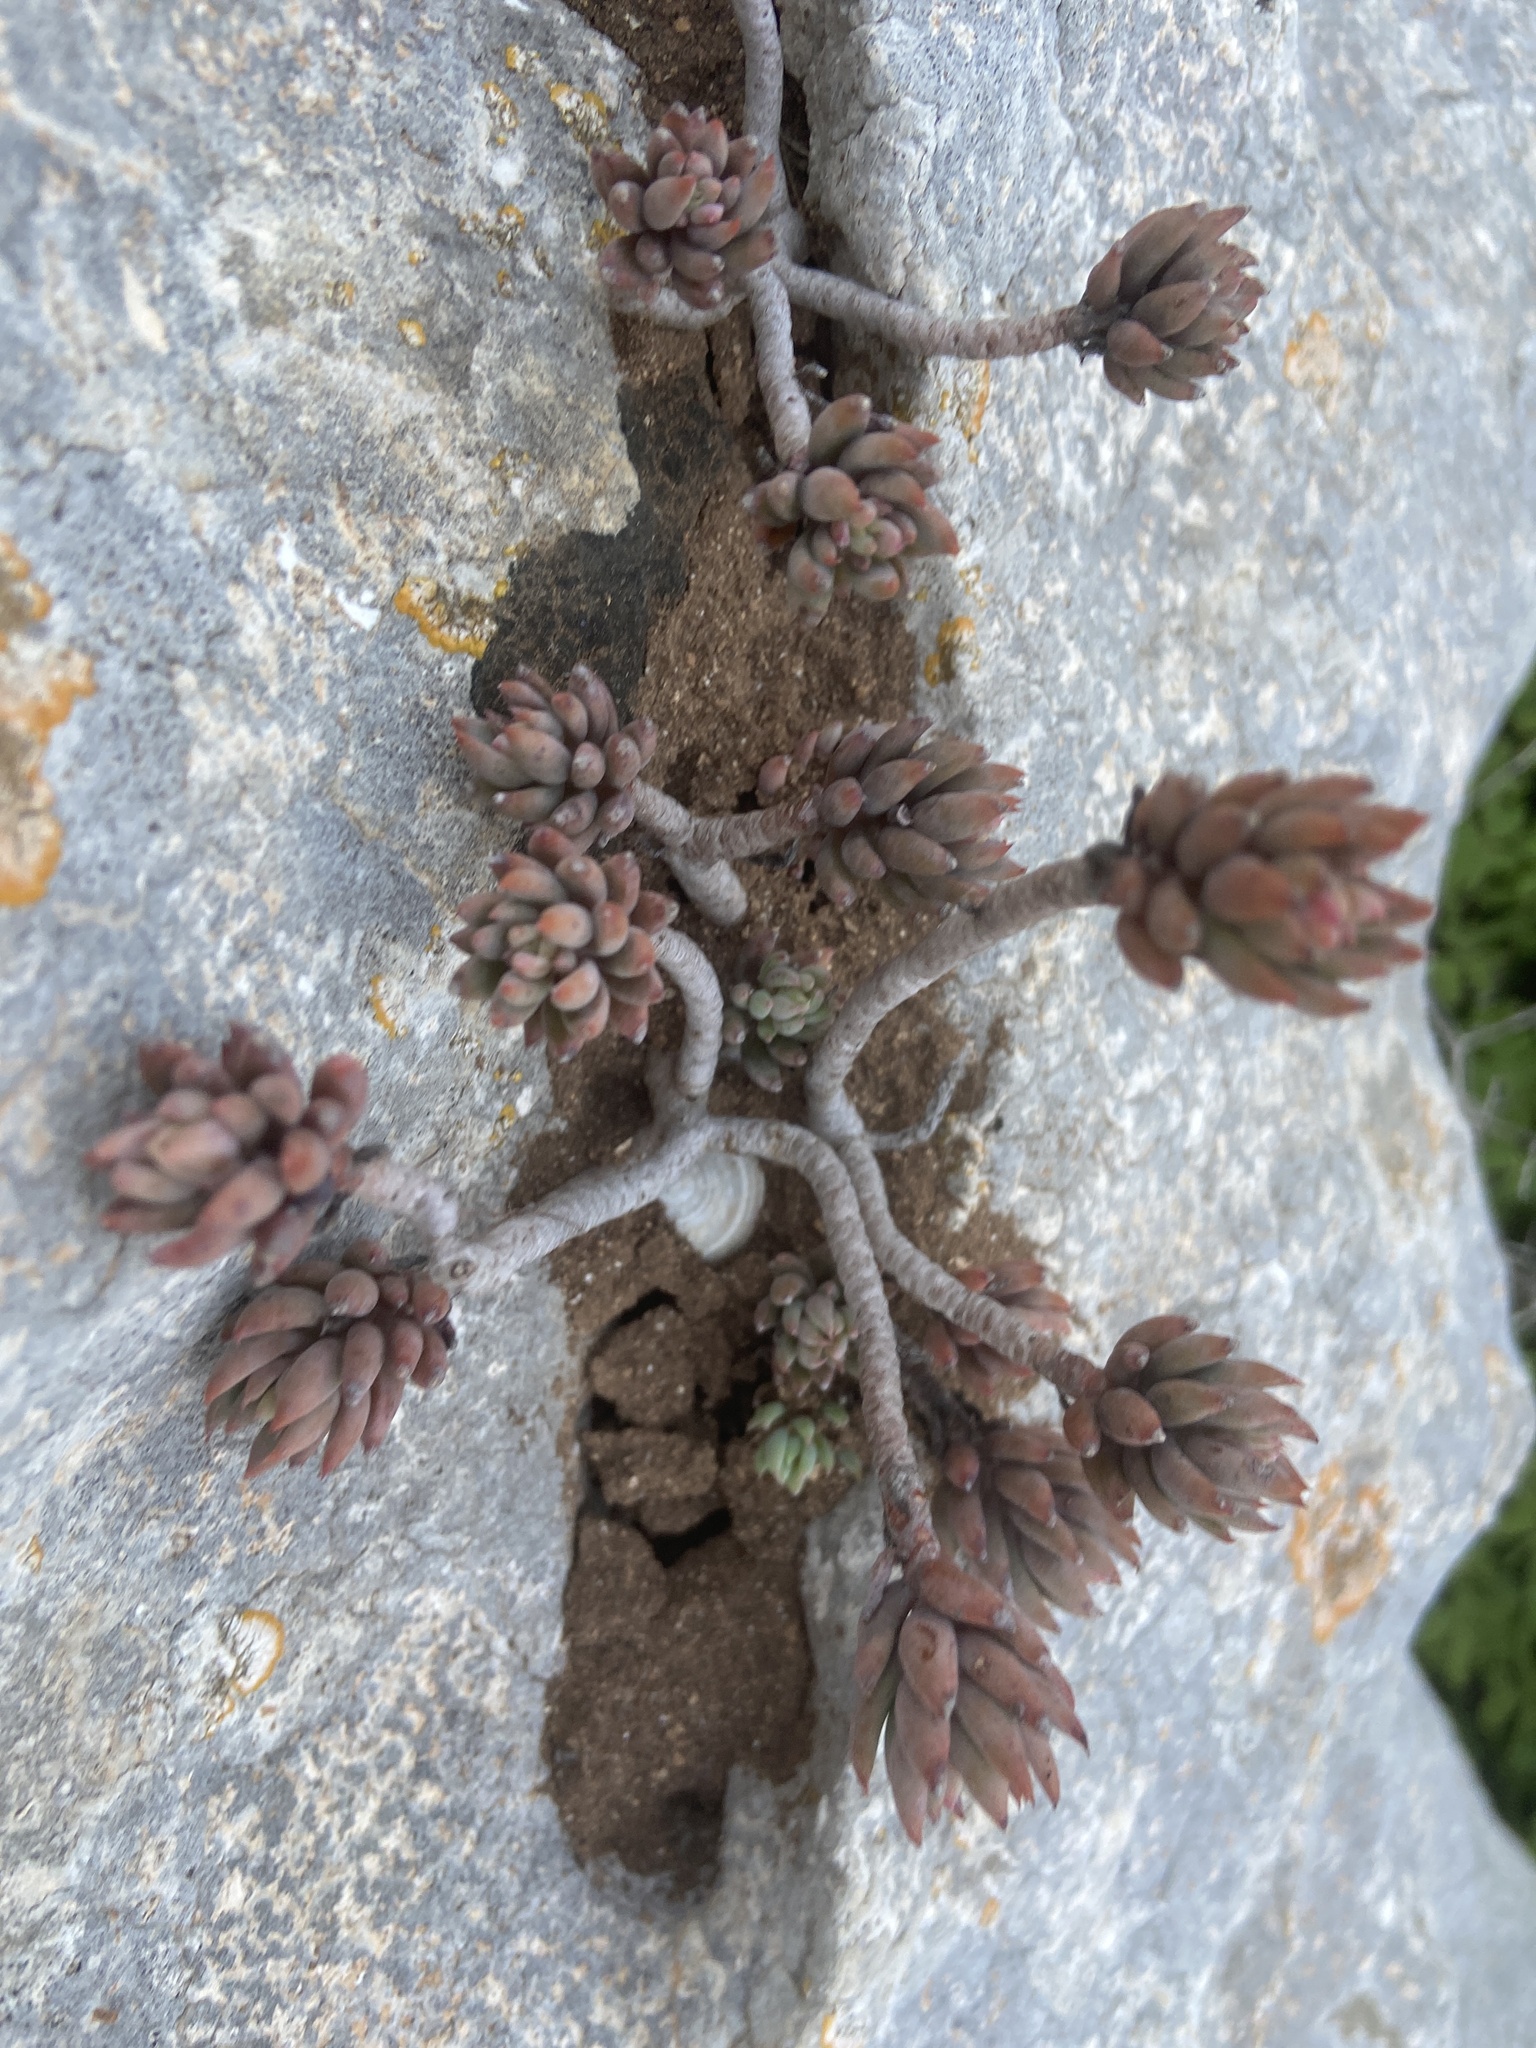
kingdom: Plantae
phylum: Tracheophyta
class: Magnoliopsida
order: Saxifragales
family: Crassulaceae
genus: Petrosedum
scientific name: Petrosedum sediforme
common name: Pale stonecrop
